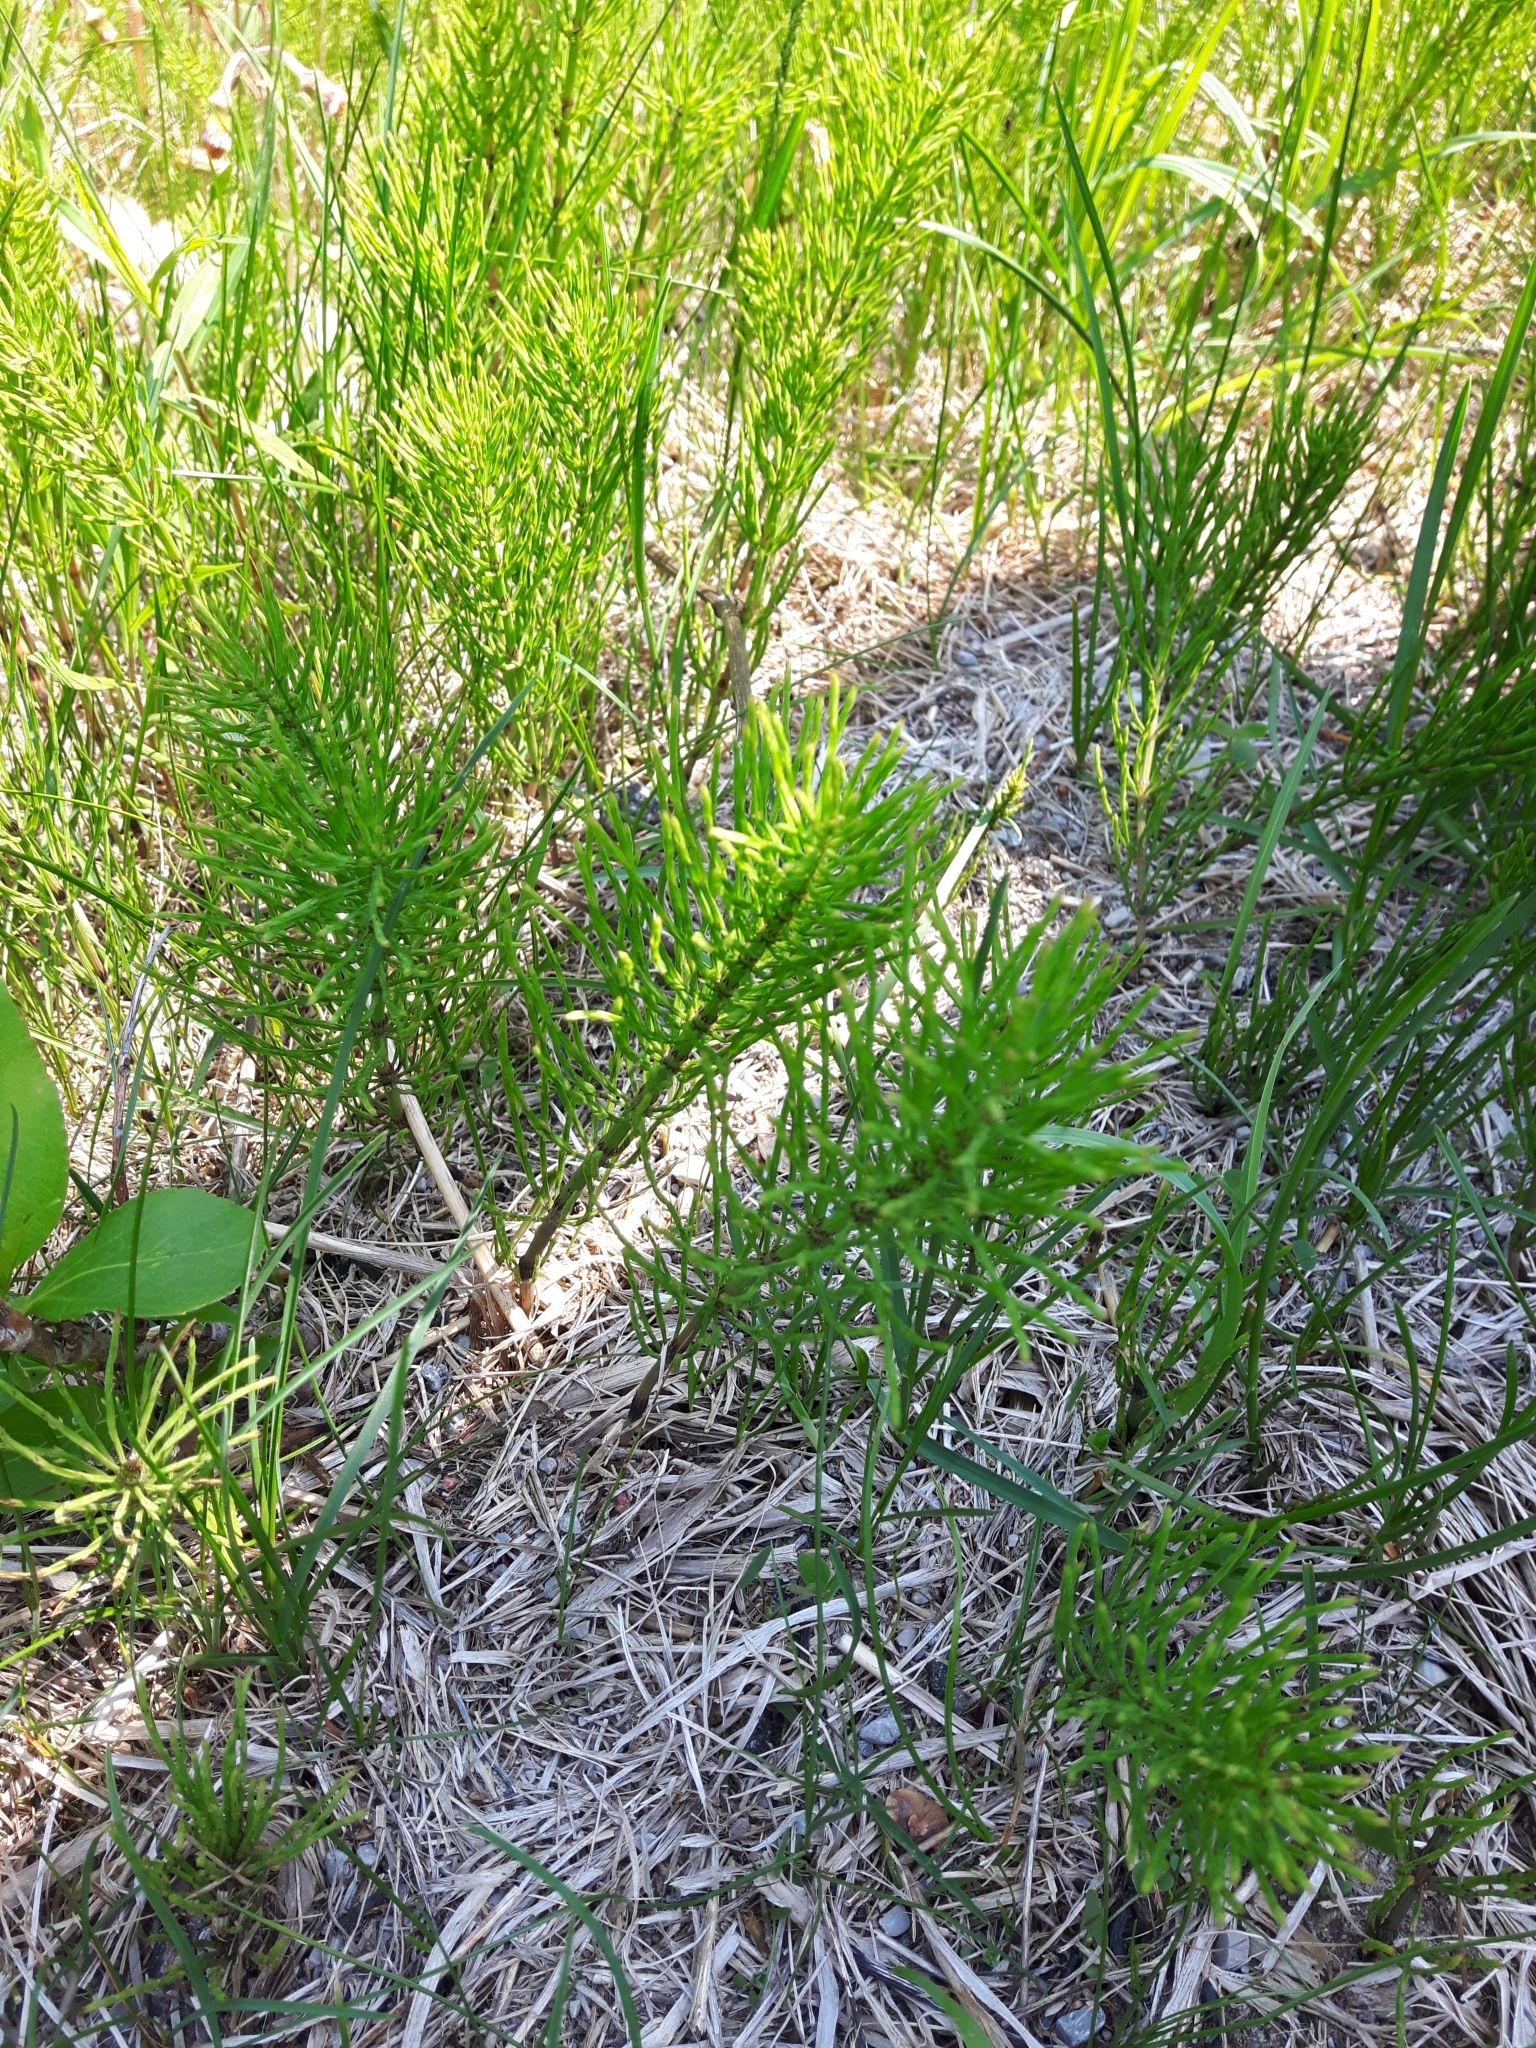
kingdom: Plantae
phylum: Tracheophyta
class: Polypodiopsida
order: Equisetales
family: Equisetaceae
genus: Equisetum
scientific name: Equisetum arvense
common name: Field horsetail
